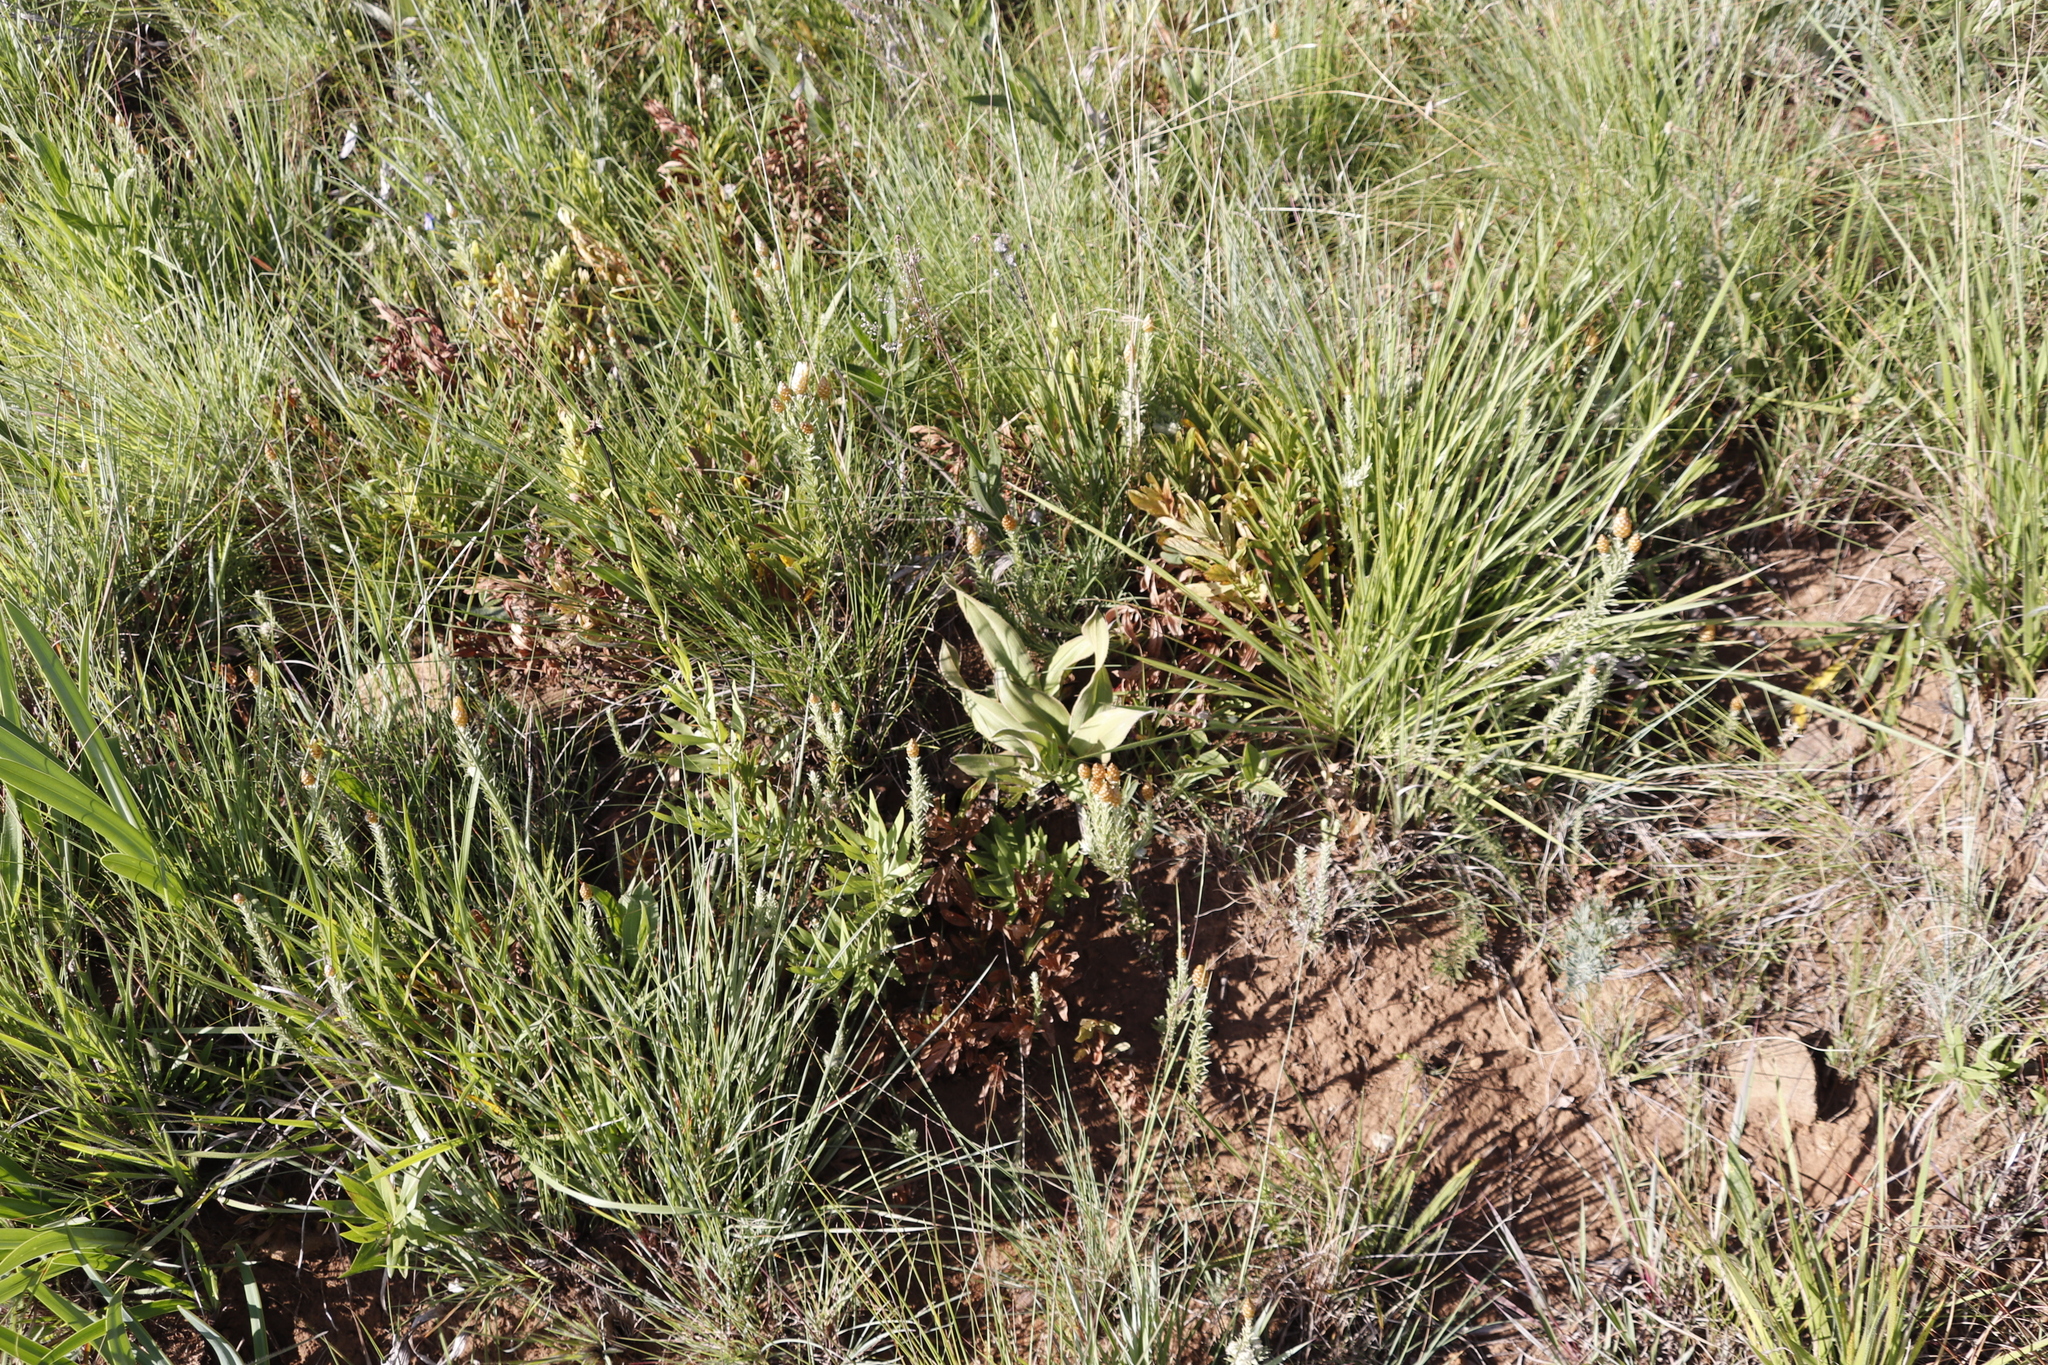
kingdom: Plantae
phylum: Tracheophyta
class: Magnoliopsida
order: Asterales
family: Asteraceae
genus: Helichrysum
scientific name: Helichrysum herbaceum
